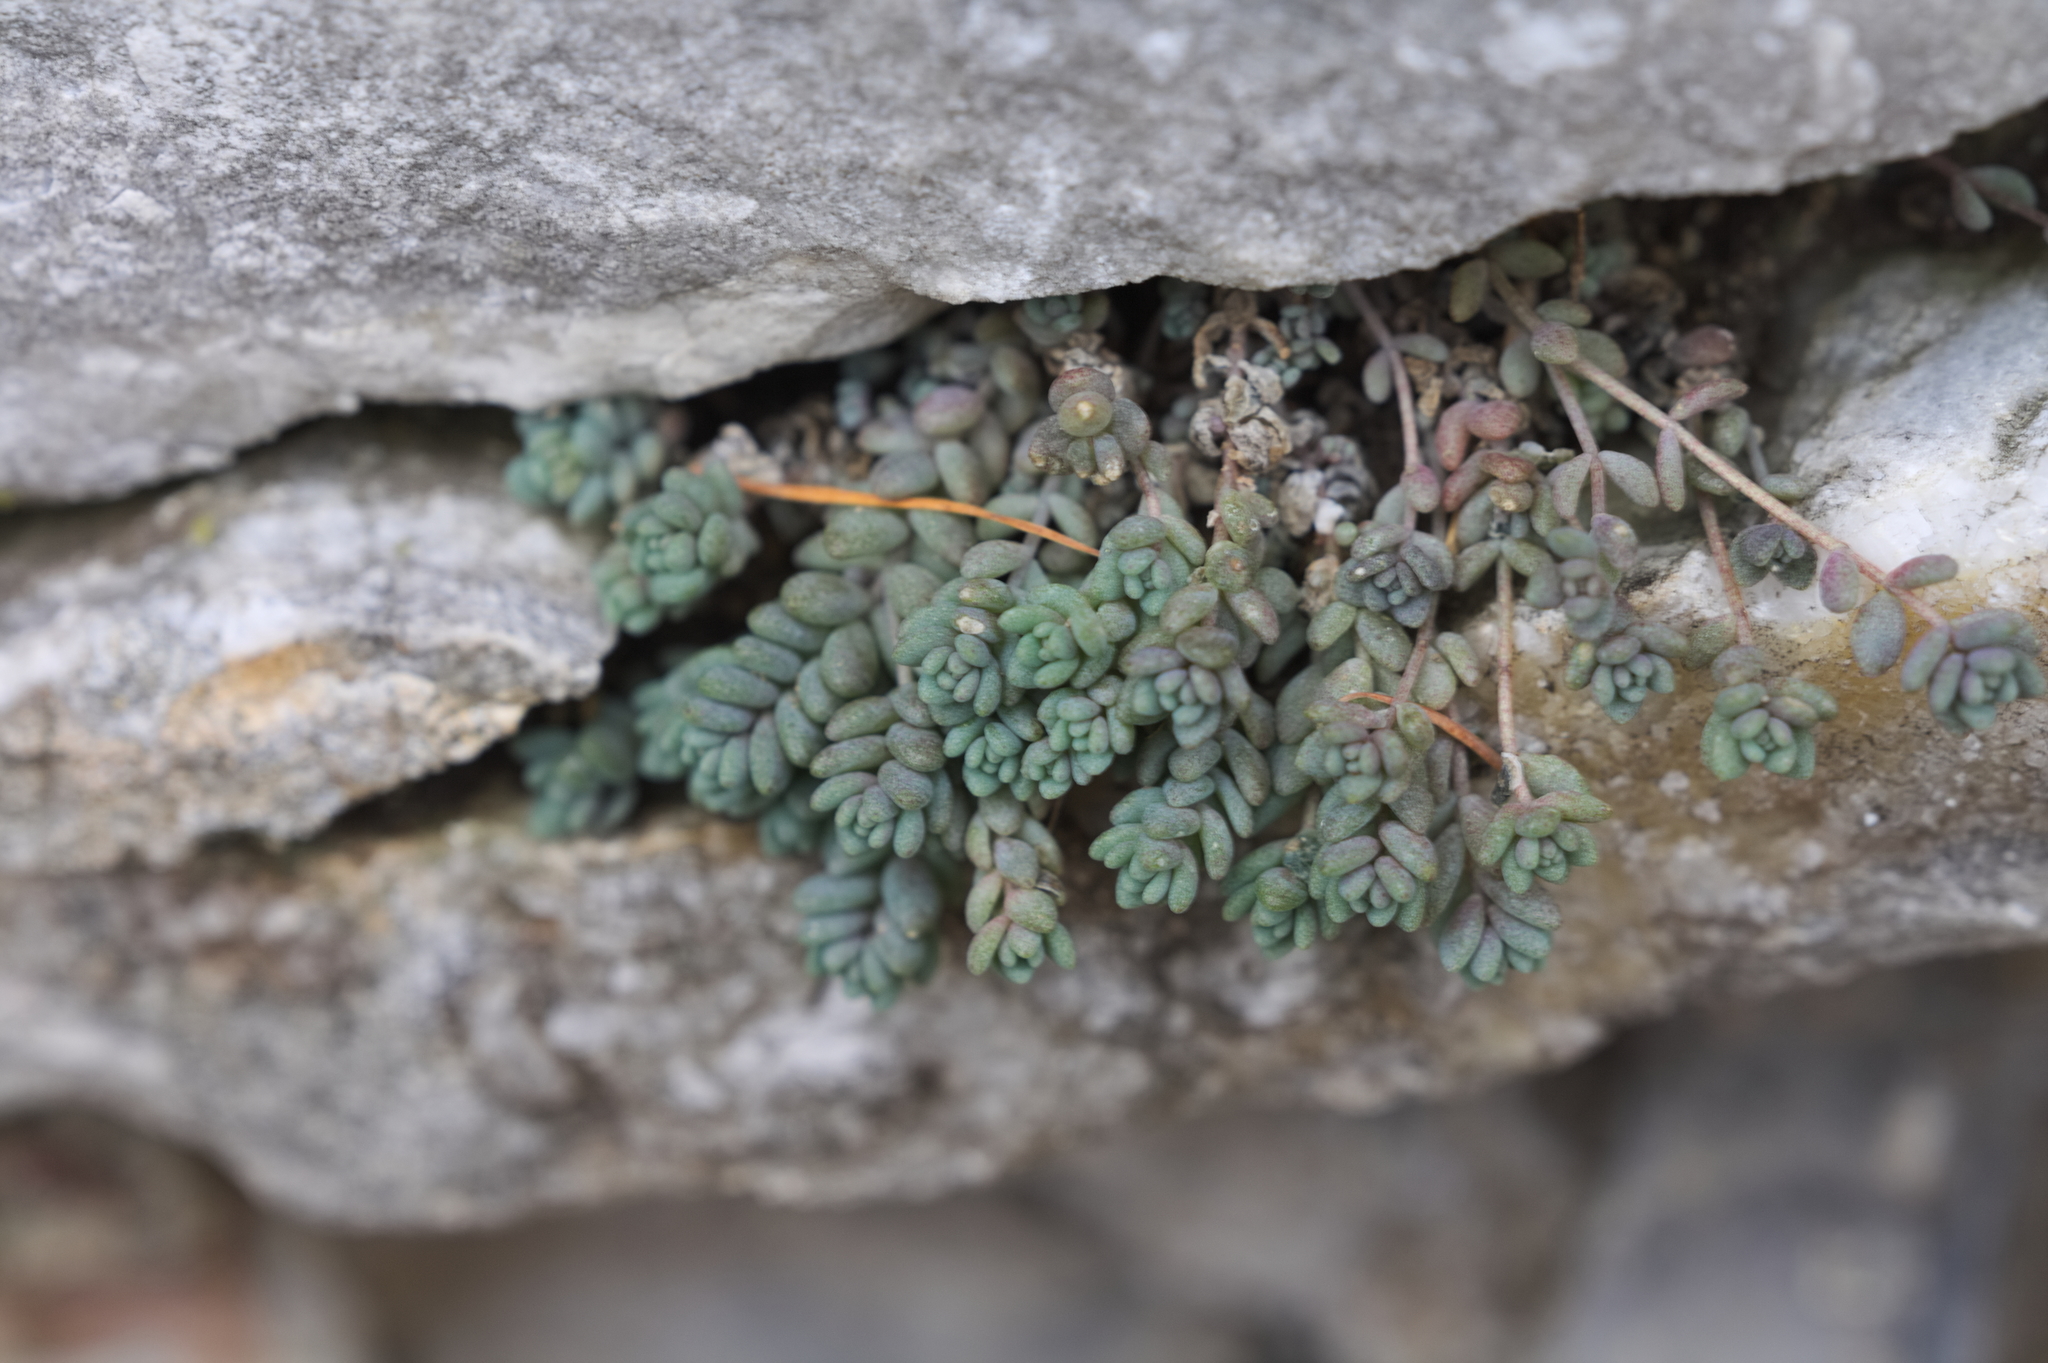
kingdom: Plantae
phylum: Tracheophyta
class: Magnoliopsida
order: Saxifragales
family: Crassulaceae
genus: Sedum
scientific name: Sedum dasyphyllum
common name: Thick-leaf stonecrop
